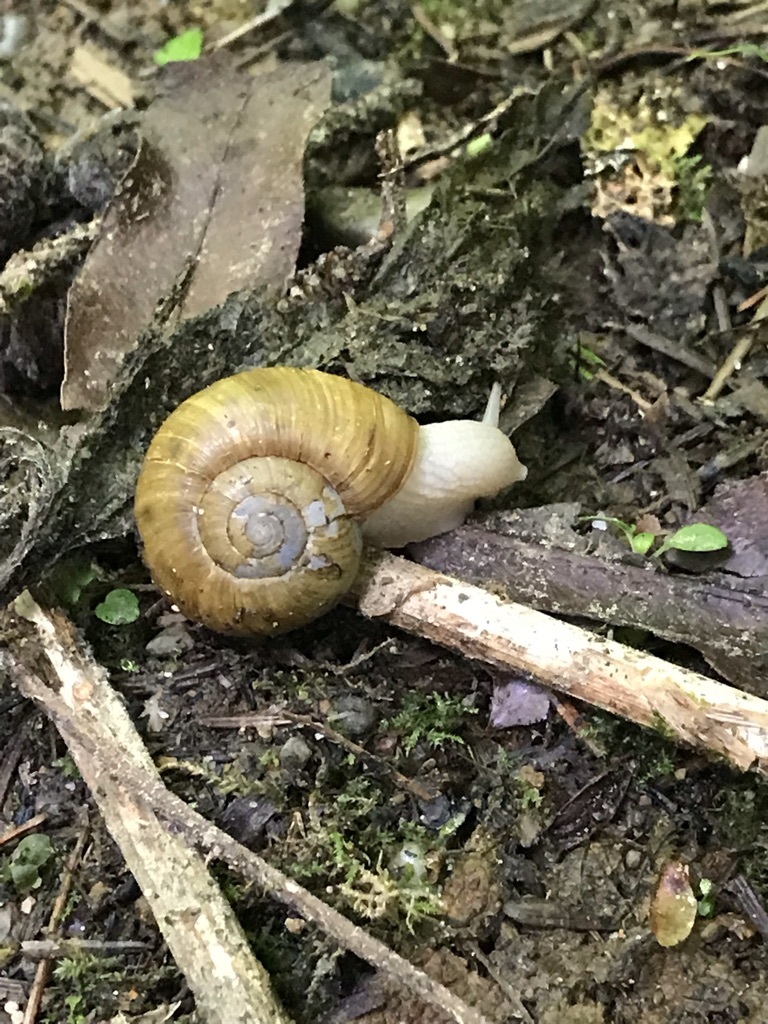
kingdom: Animalia
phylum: Mollusca
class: Gastropoda
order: Stylommatophora
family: Haplotrematidae
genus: Haplotrema
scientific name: Haplotrema vancouverense
